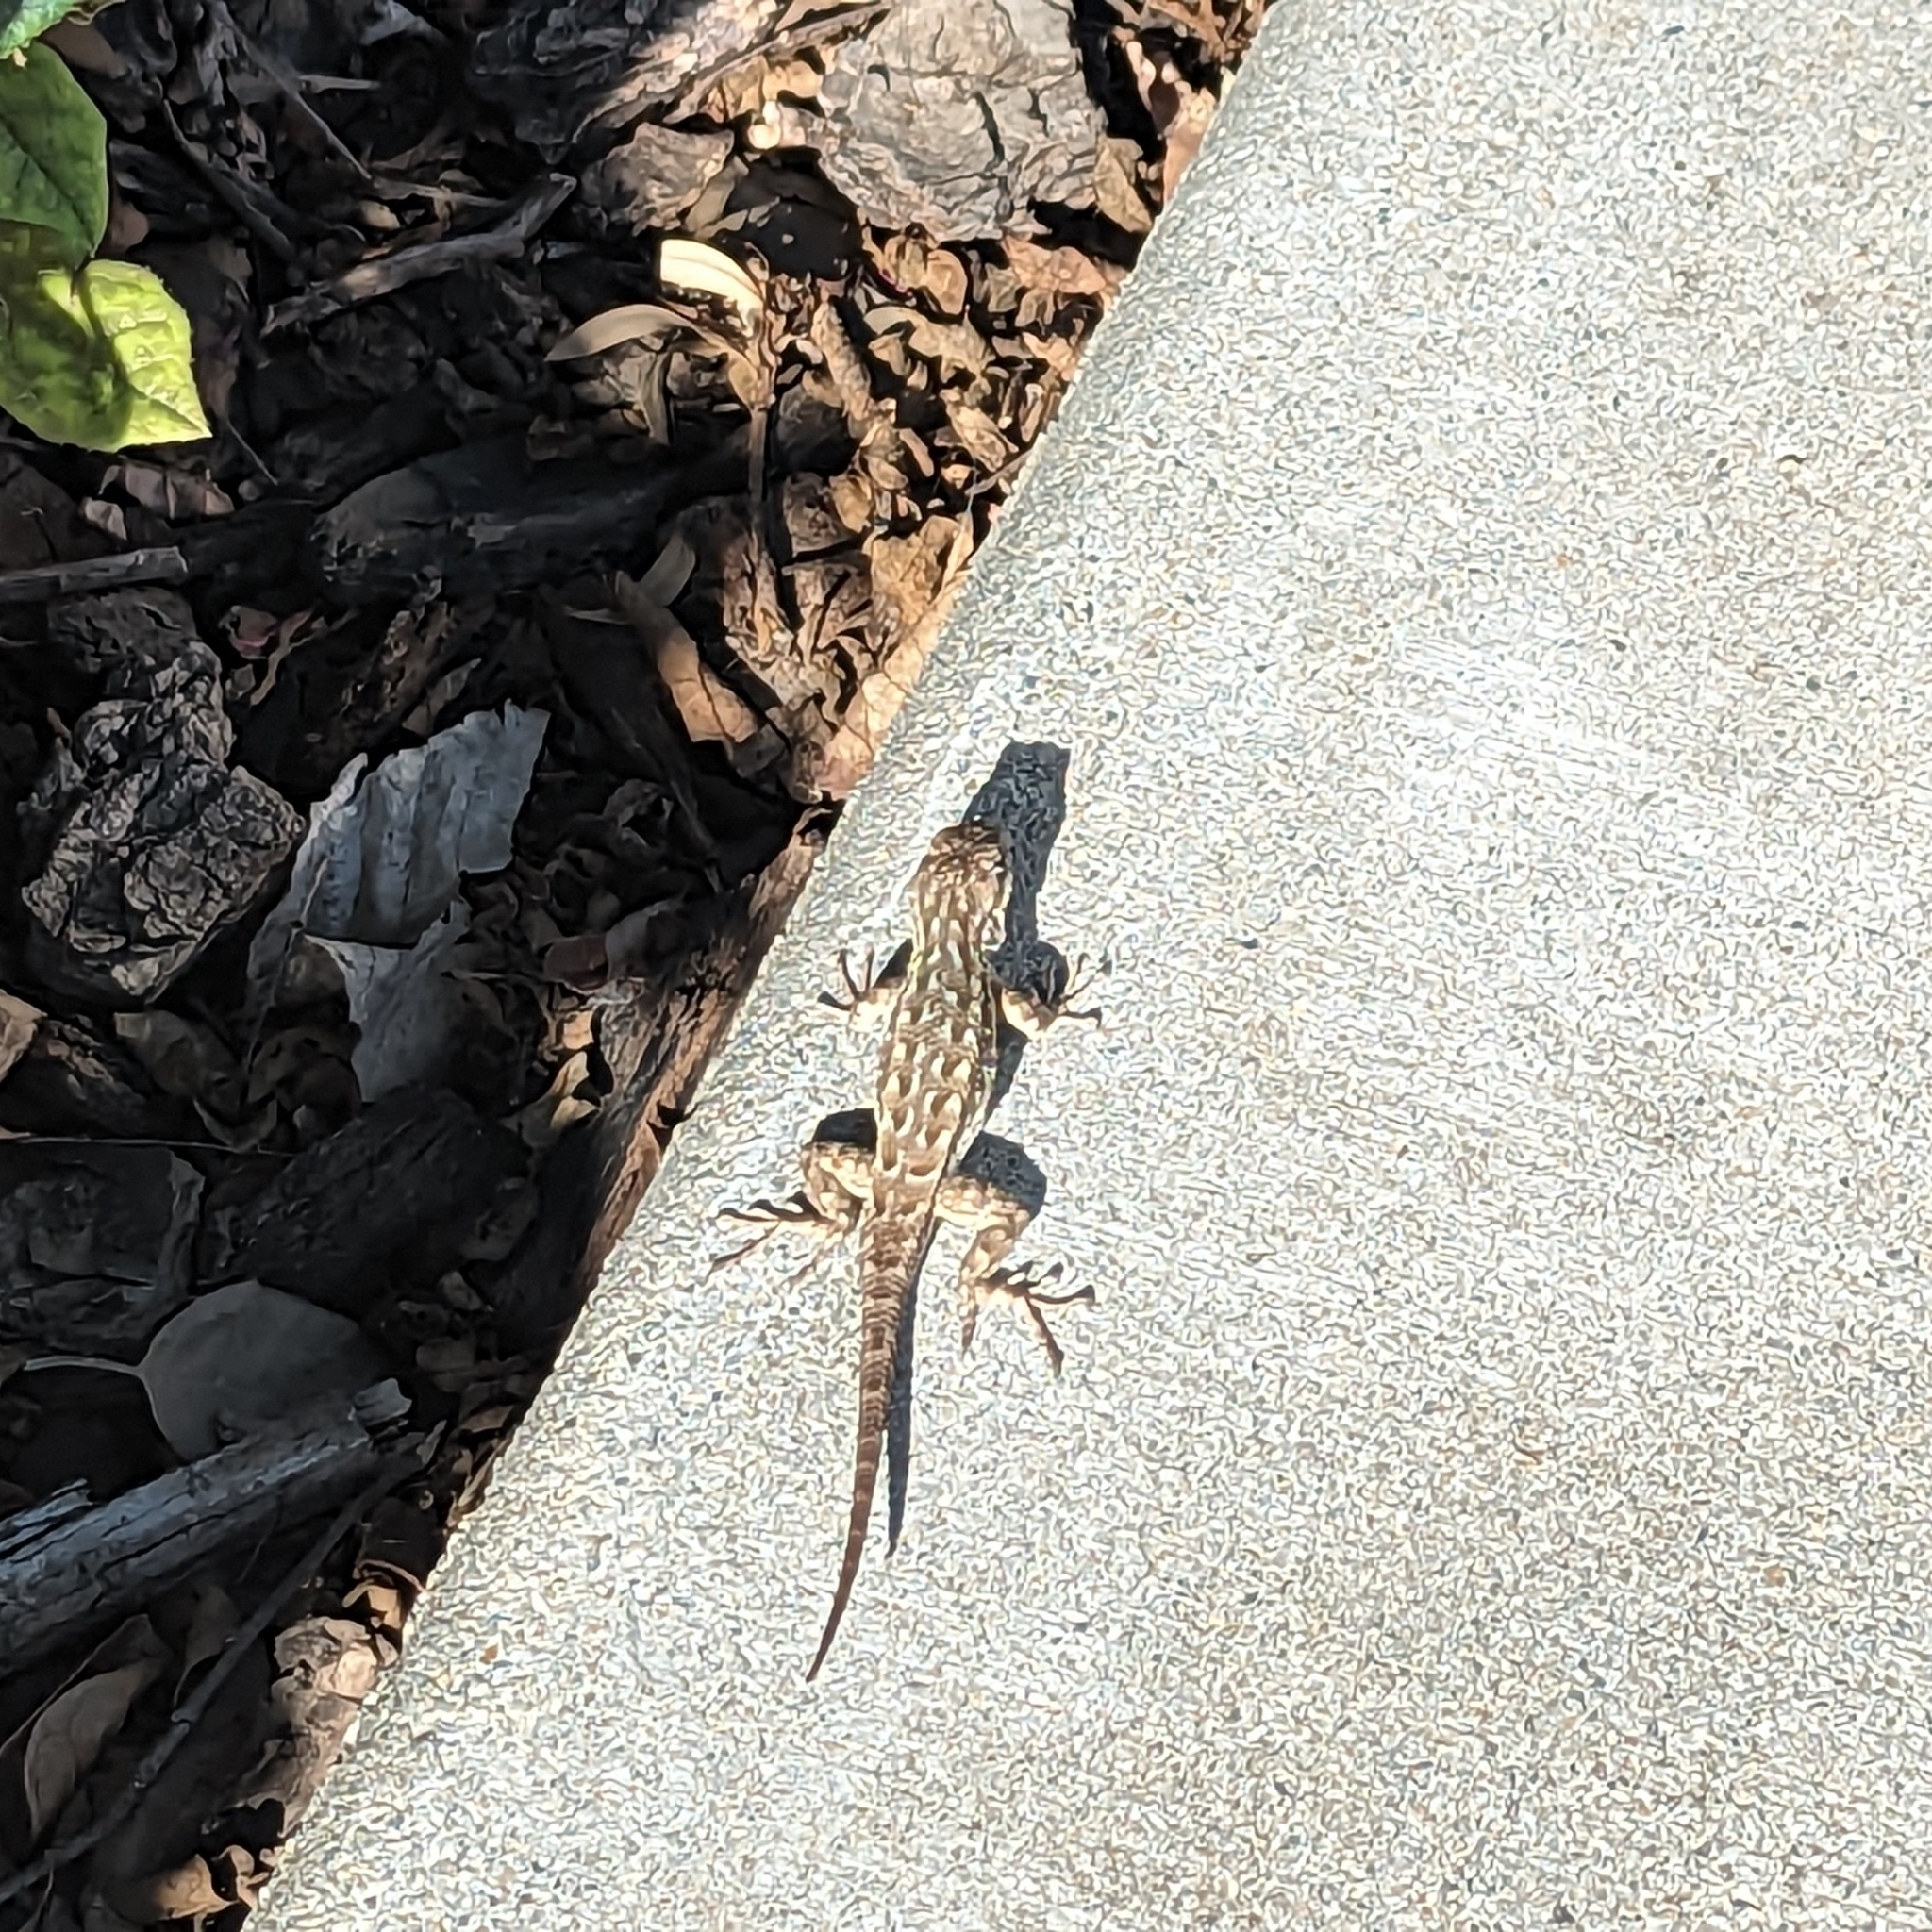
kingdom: Animalia
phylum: Chordata
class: Squamata
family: Phrynosomatidae
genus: Sceloporus
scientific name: Sceloporus occidentalis
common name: Western fence lizard
